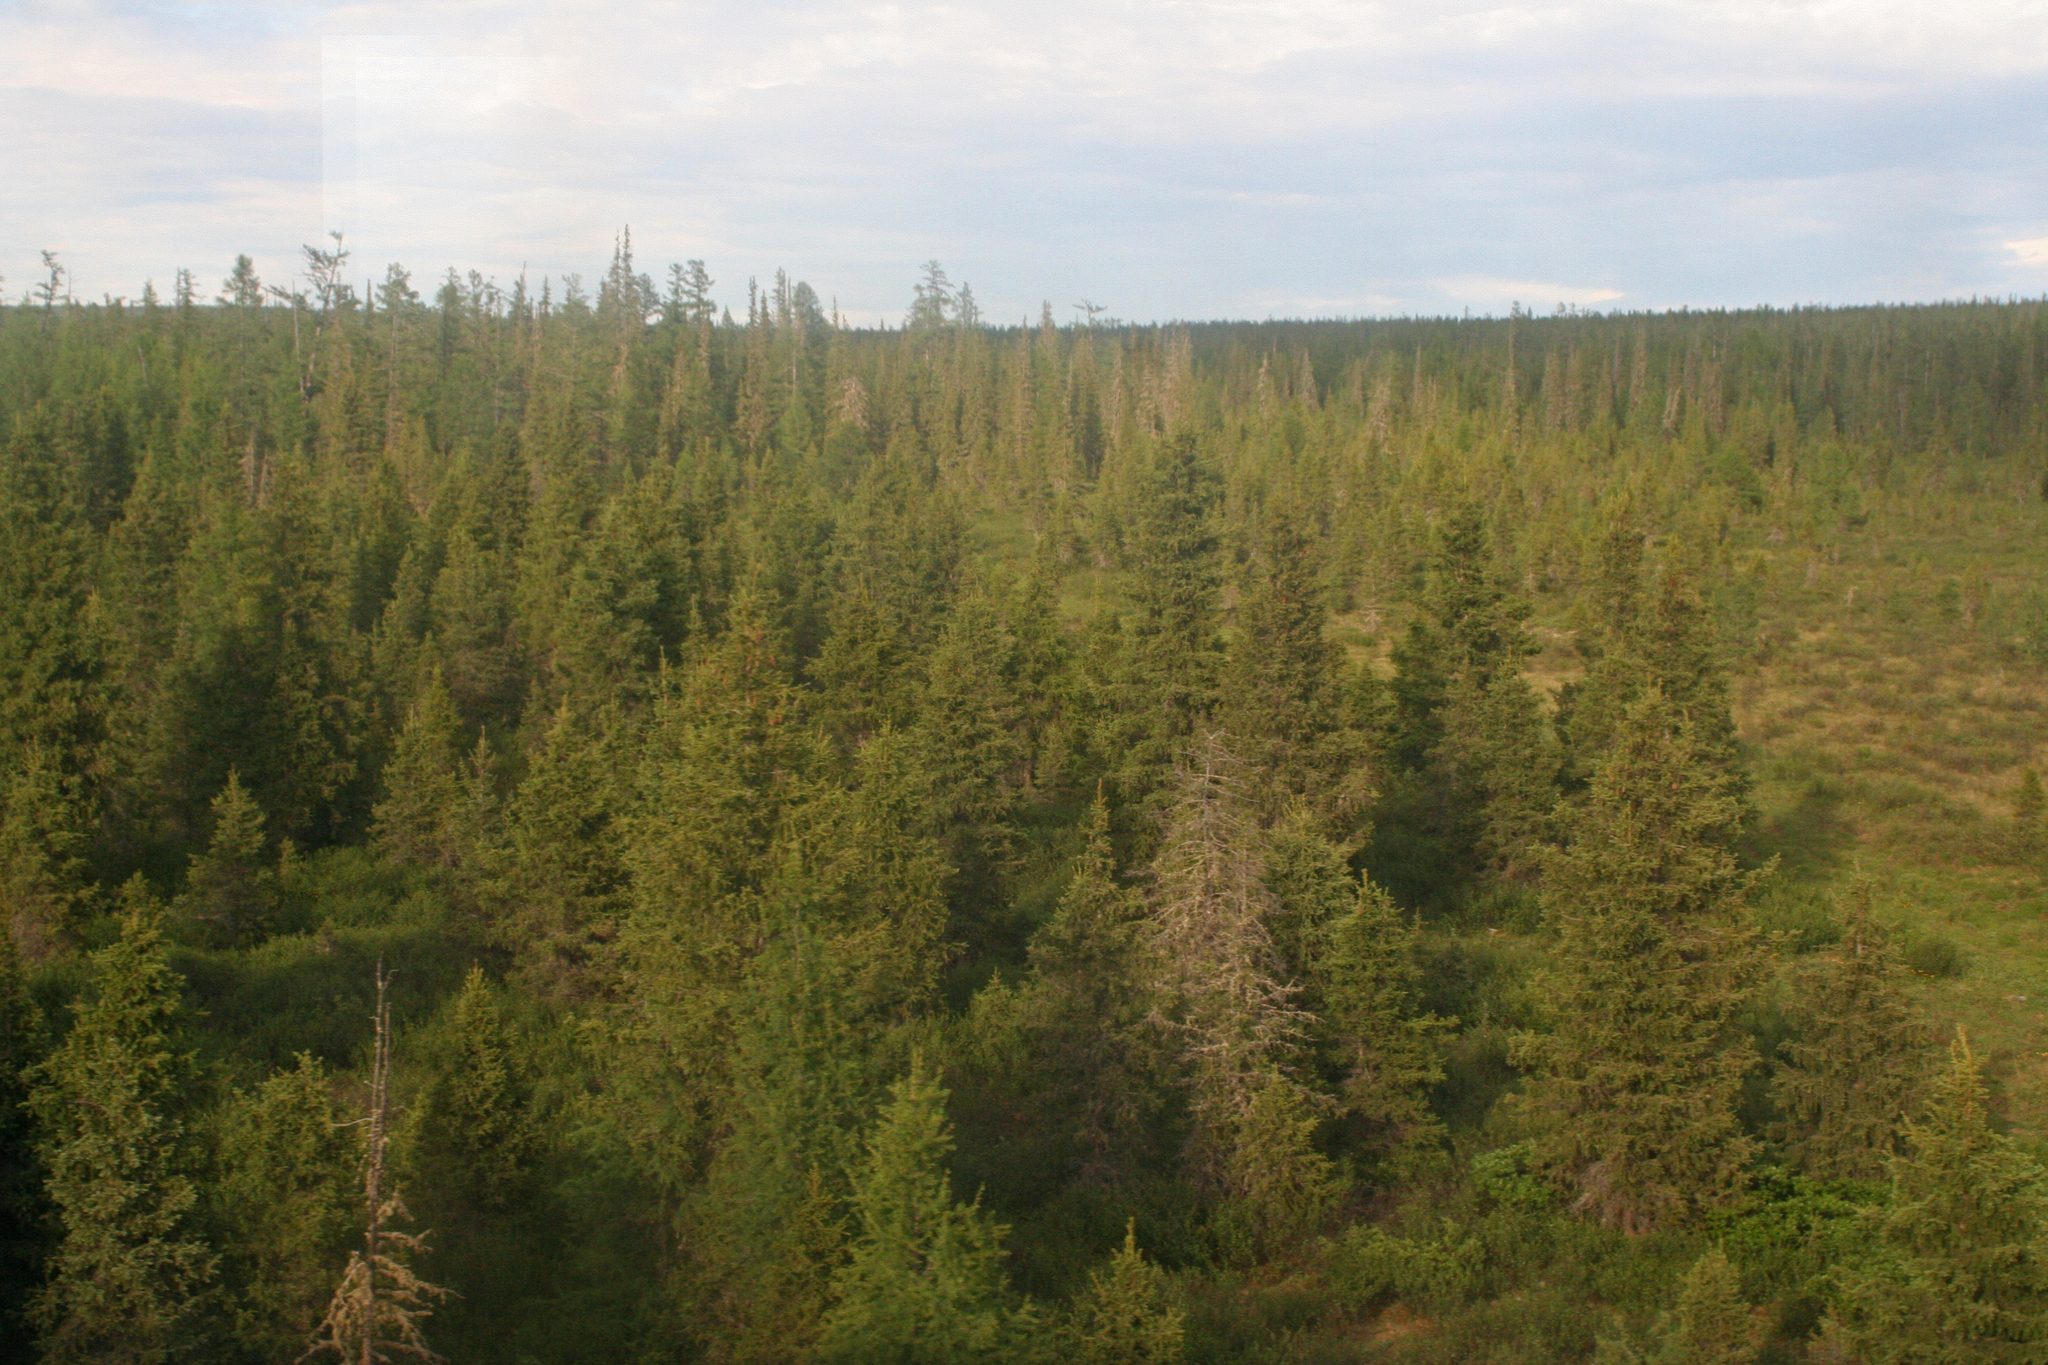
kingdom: Plantae
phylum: Tracheophyta
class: Pinopsida
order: Pinales
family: Pinaceae
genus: Picea
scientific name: Picea obovata
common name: Siberian spruce
